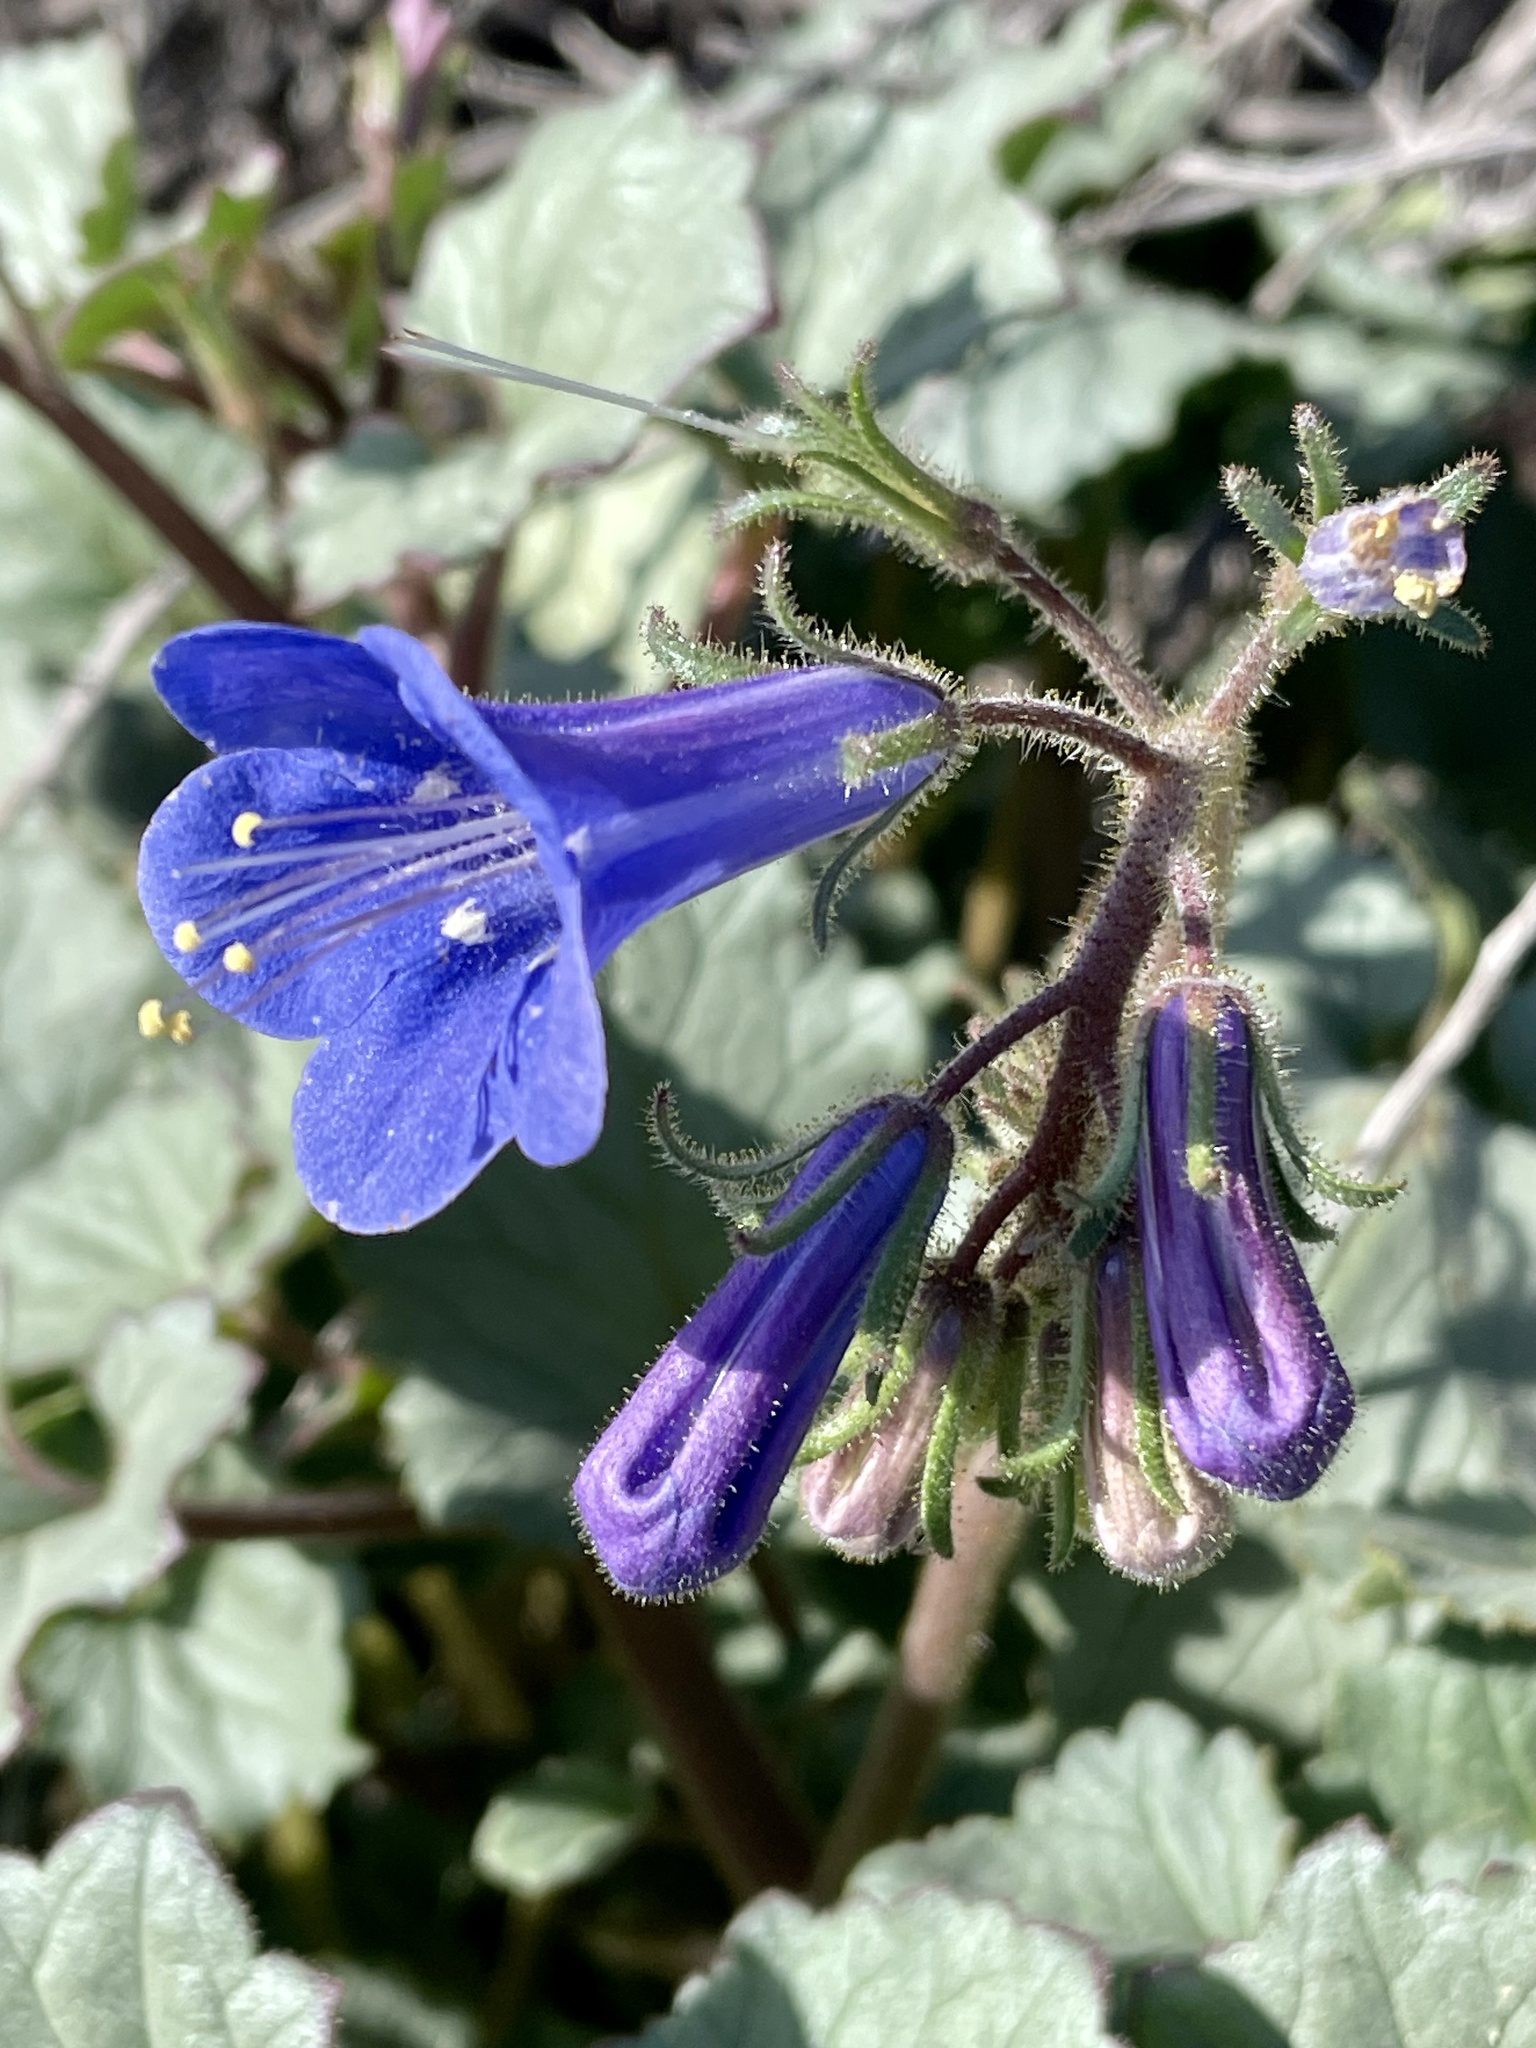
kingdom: Plantae
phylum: Tracheophyta
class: Magnoliopsida
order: Boraginales
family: Hydrophyllaceae
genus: Phacelia
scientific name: Phacelia campanularia
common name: California bluebell
